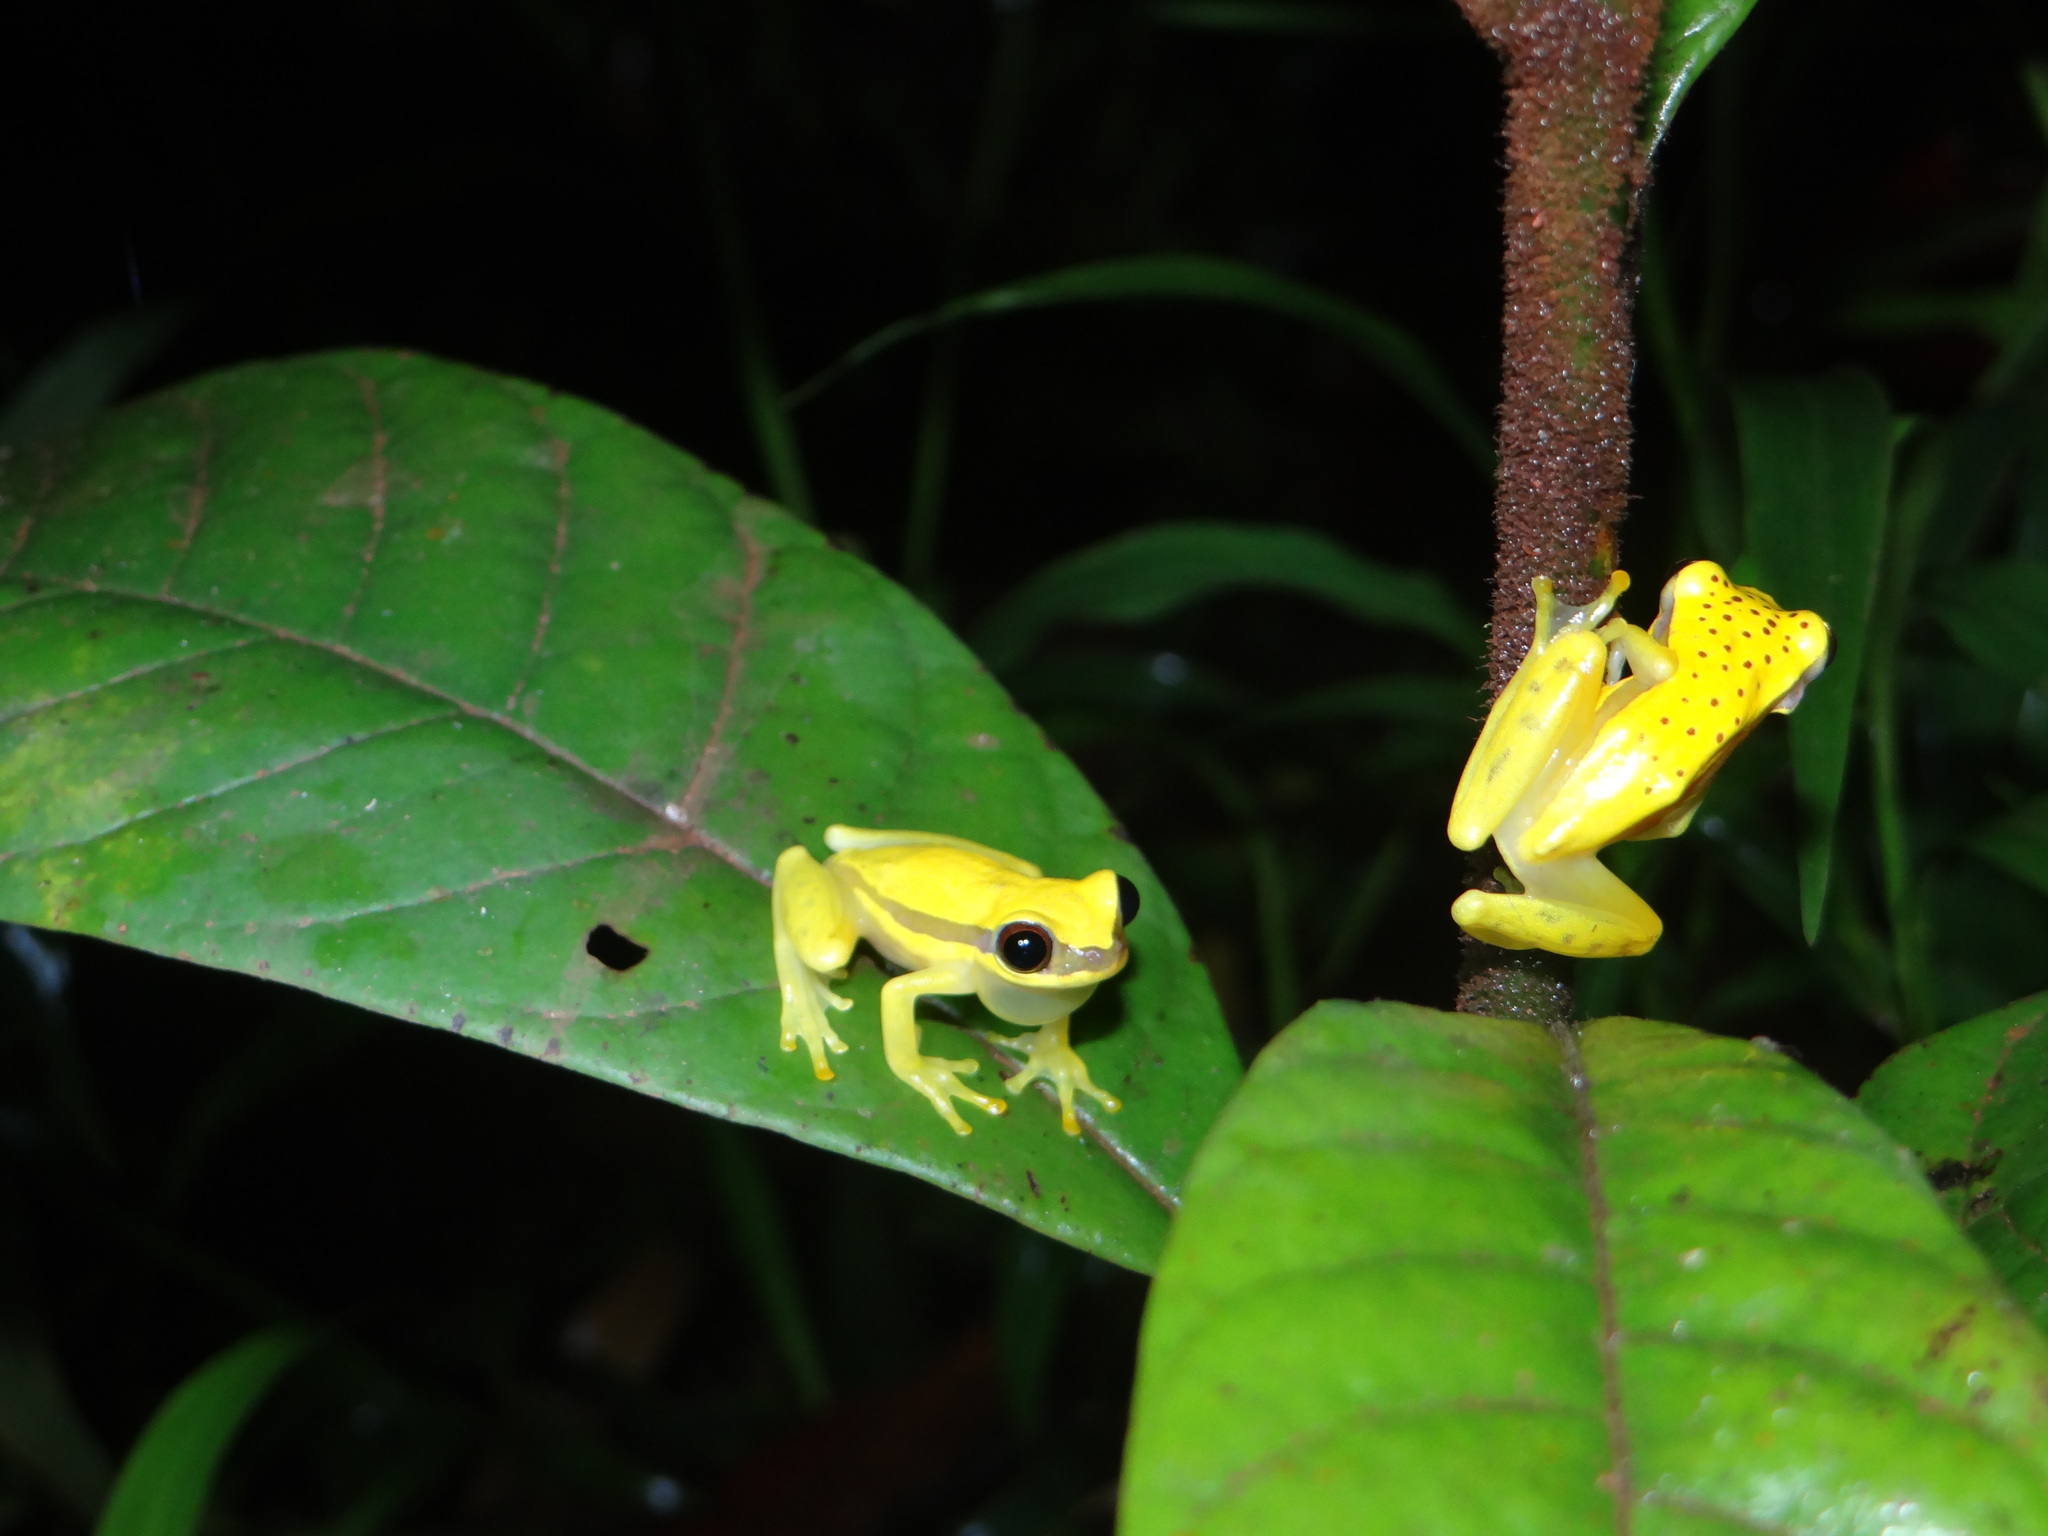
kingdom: Animalia
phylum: Chordata
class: Amphibia
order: Anura
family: Hylidae
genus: Dendropsophus
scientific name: Dendropsophus rhodopeplus
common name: Red-skirted treefrog
